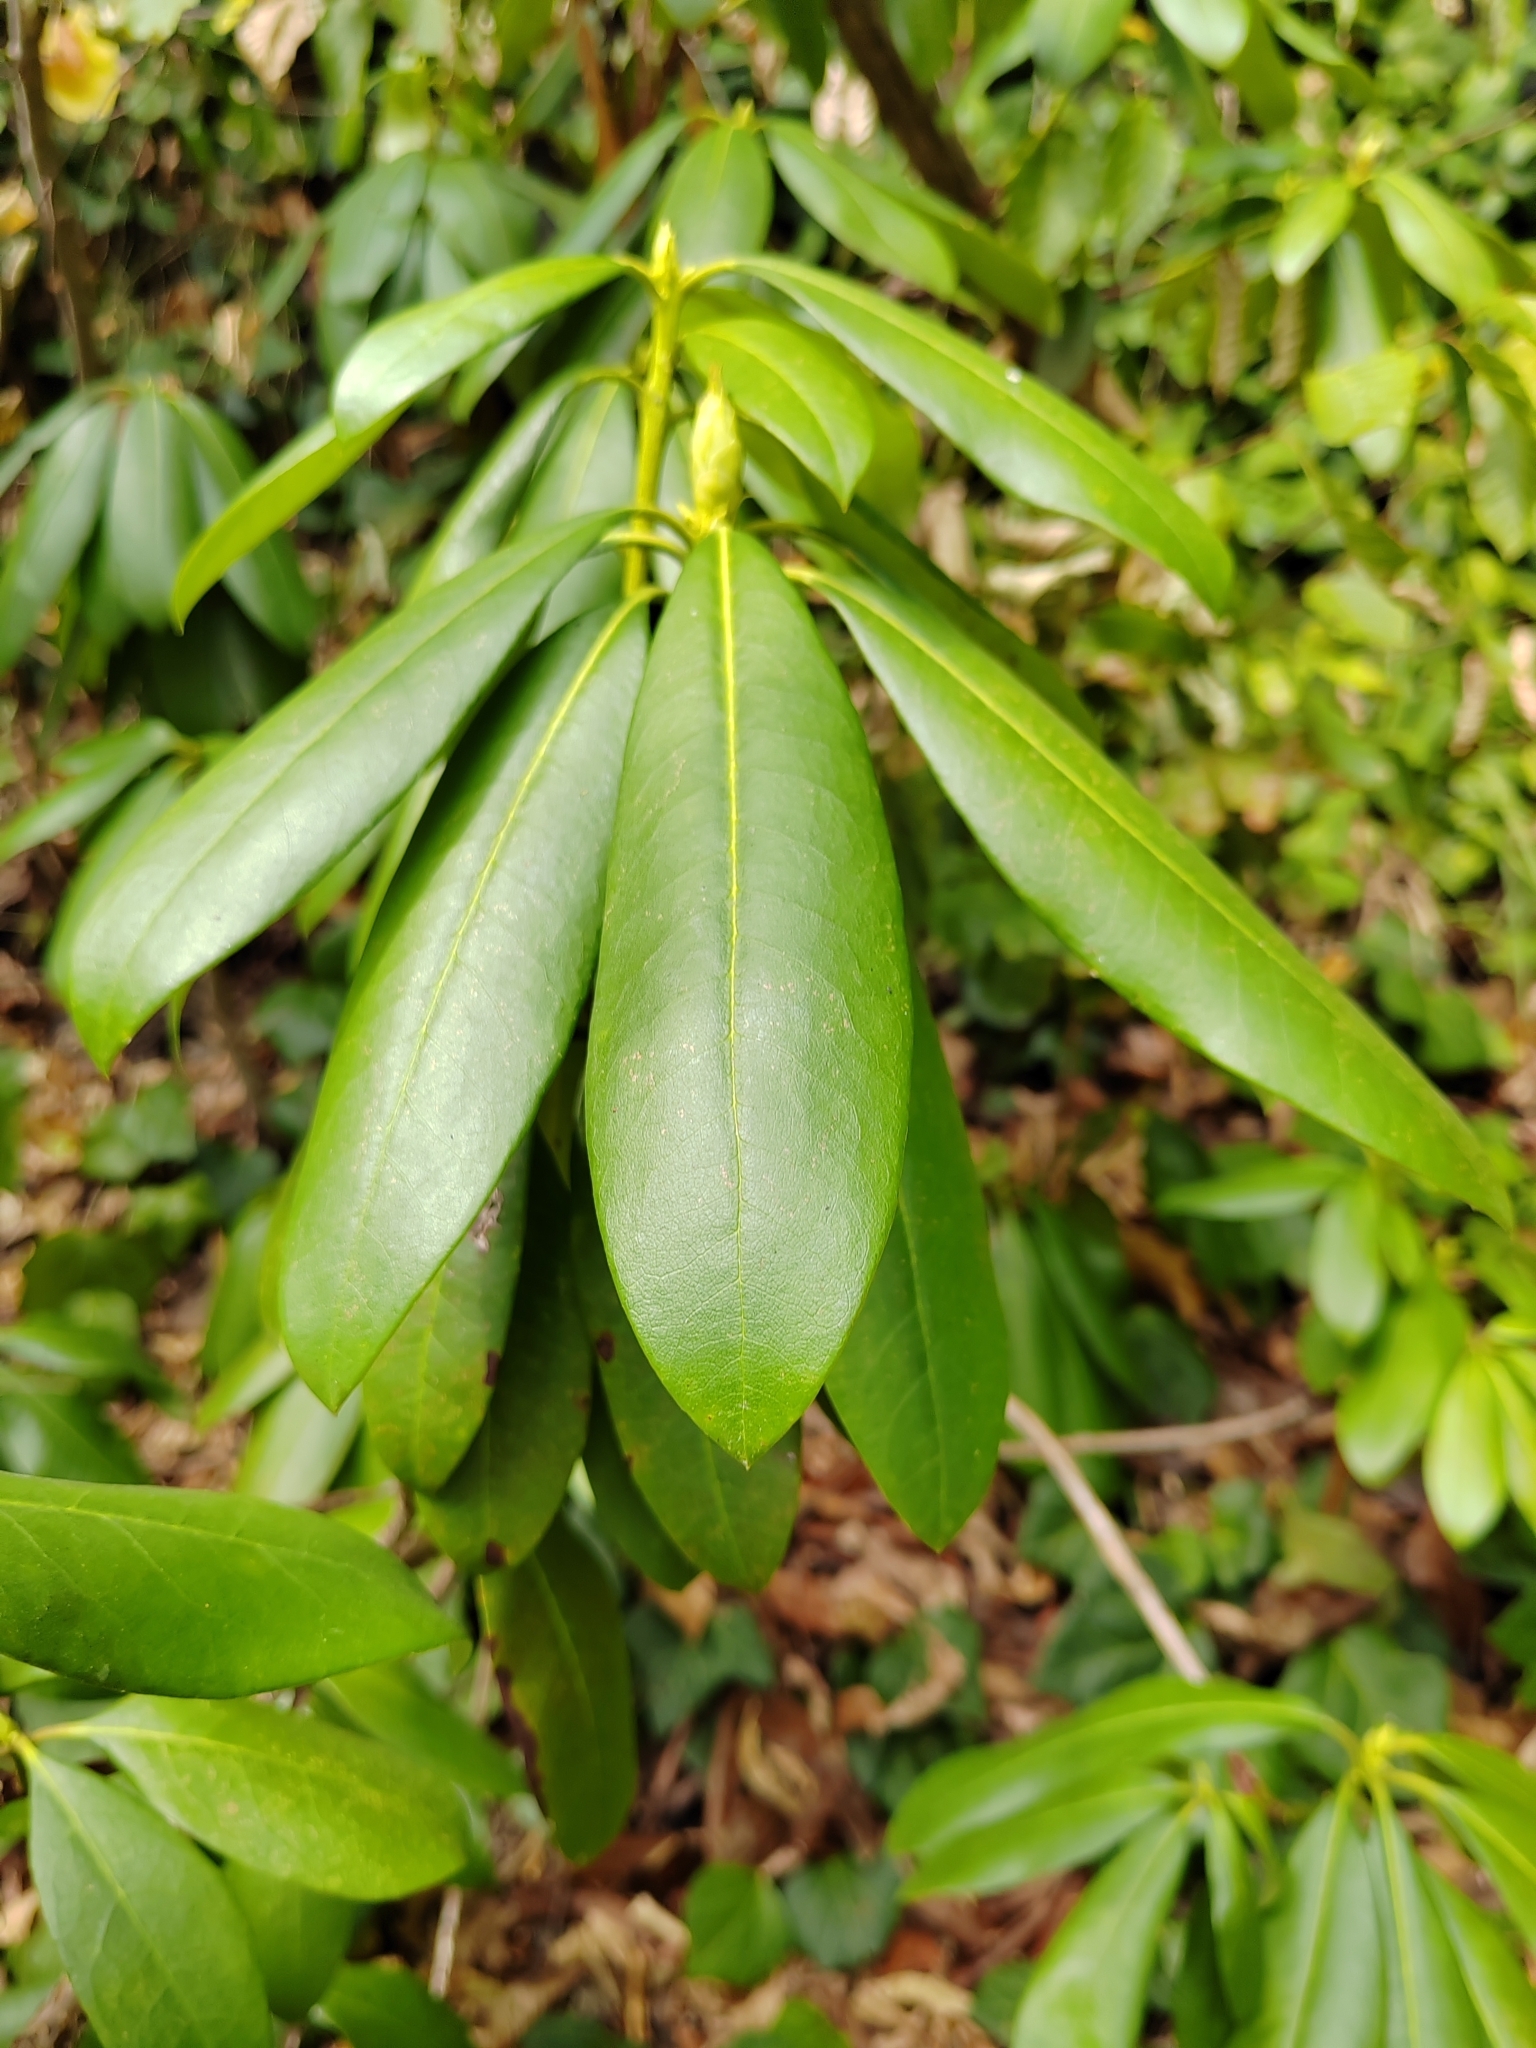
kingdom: Plantae
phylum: Tracheophyta
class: Magnoliopsida
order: Ericales
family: Ericaceae
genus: Rhododendron
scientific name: Rhododendron ponticum
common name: Rhododendron
